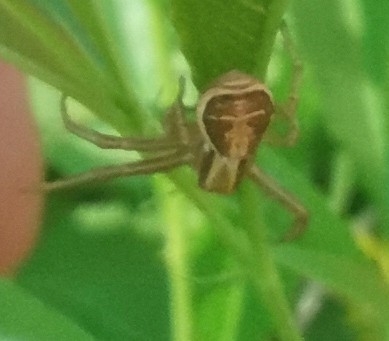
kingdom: Animalia
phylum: Arthropoda
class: Arachnida
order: Araneae
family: Thomisidae
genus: Xysticus
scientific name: Xysticus ulmi
